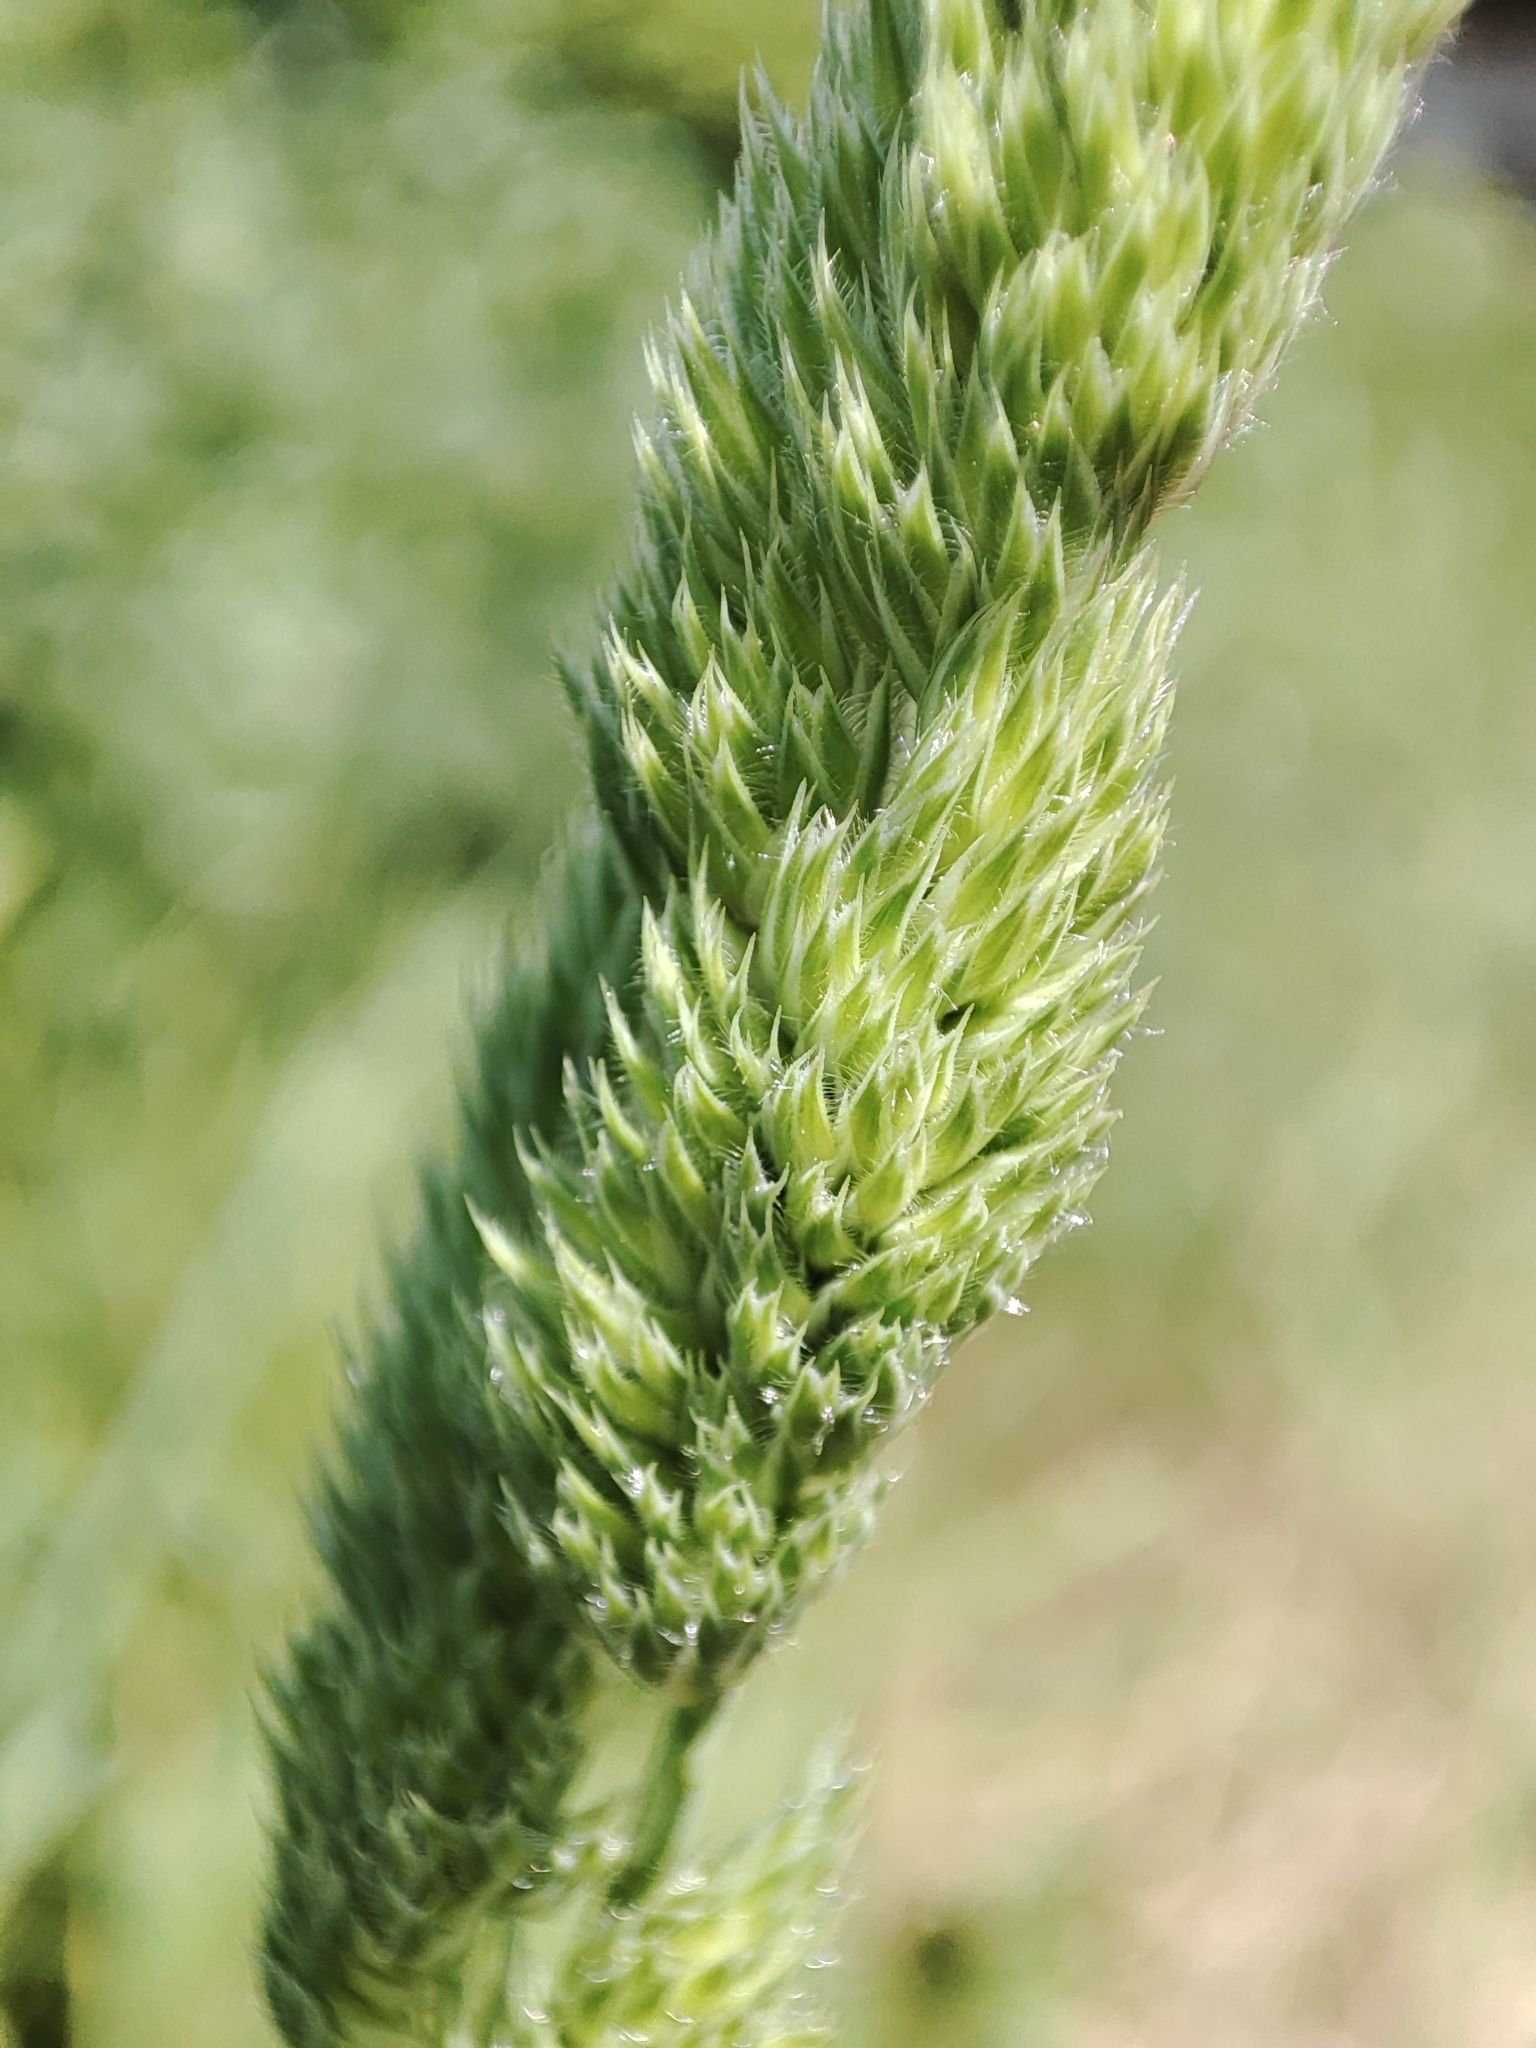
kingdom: Plantae
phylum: Tracheophyta
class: Liliopsida
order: Poales
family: Poaceae
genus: Dactylis
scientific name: Dactylis glomerata
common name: Orchardgrass
